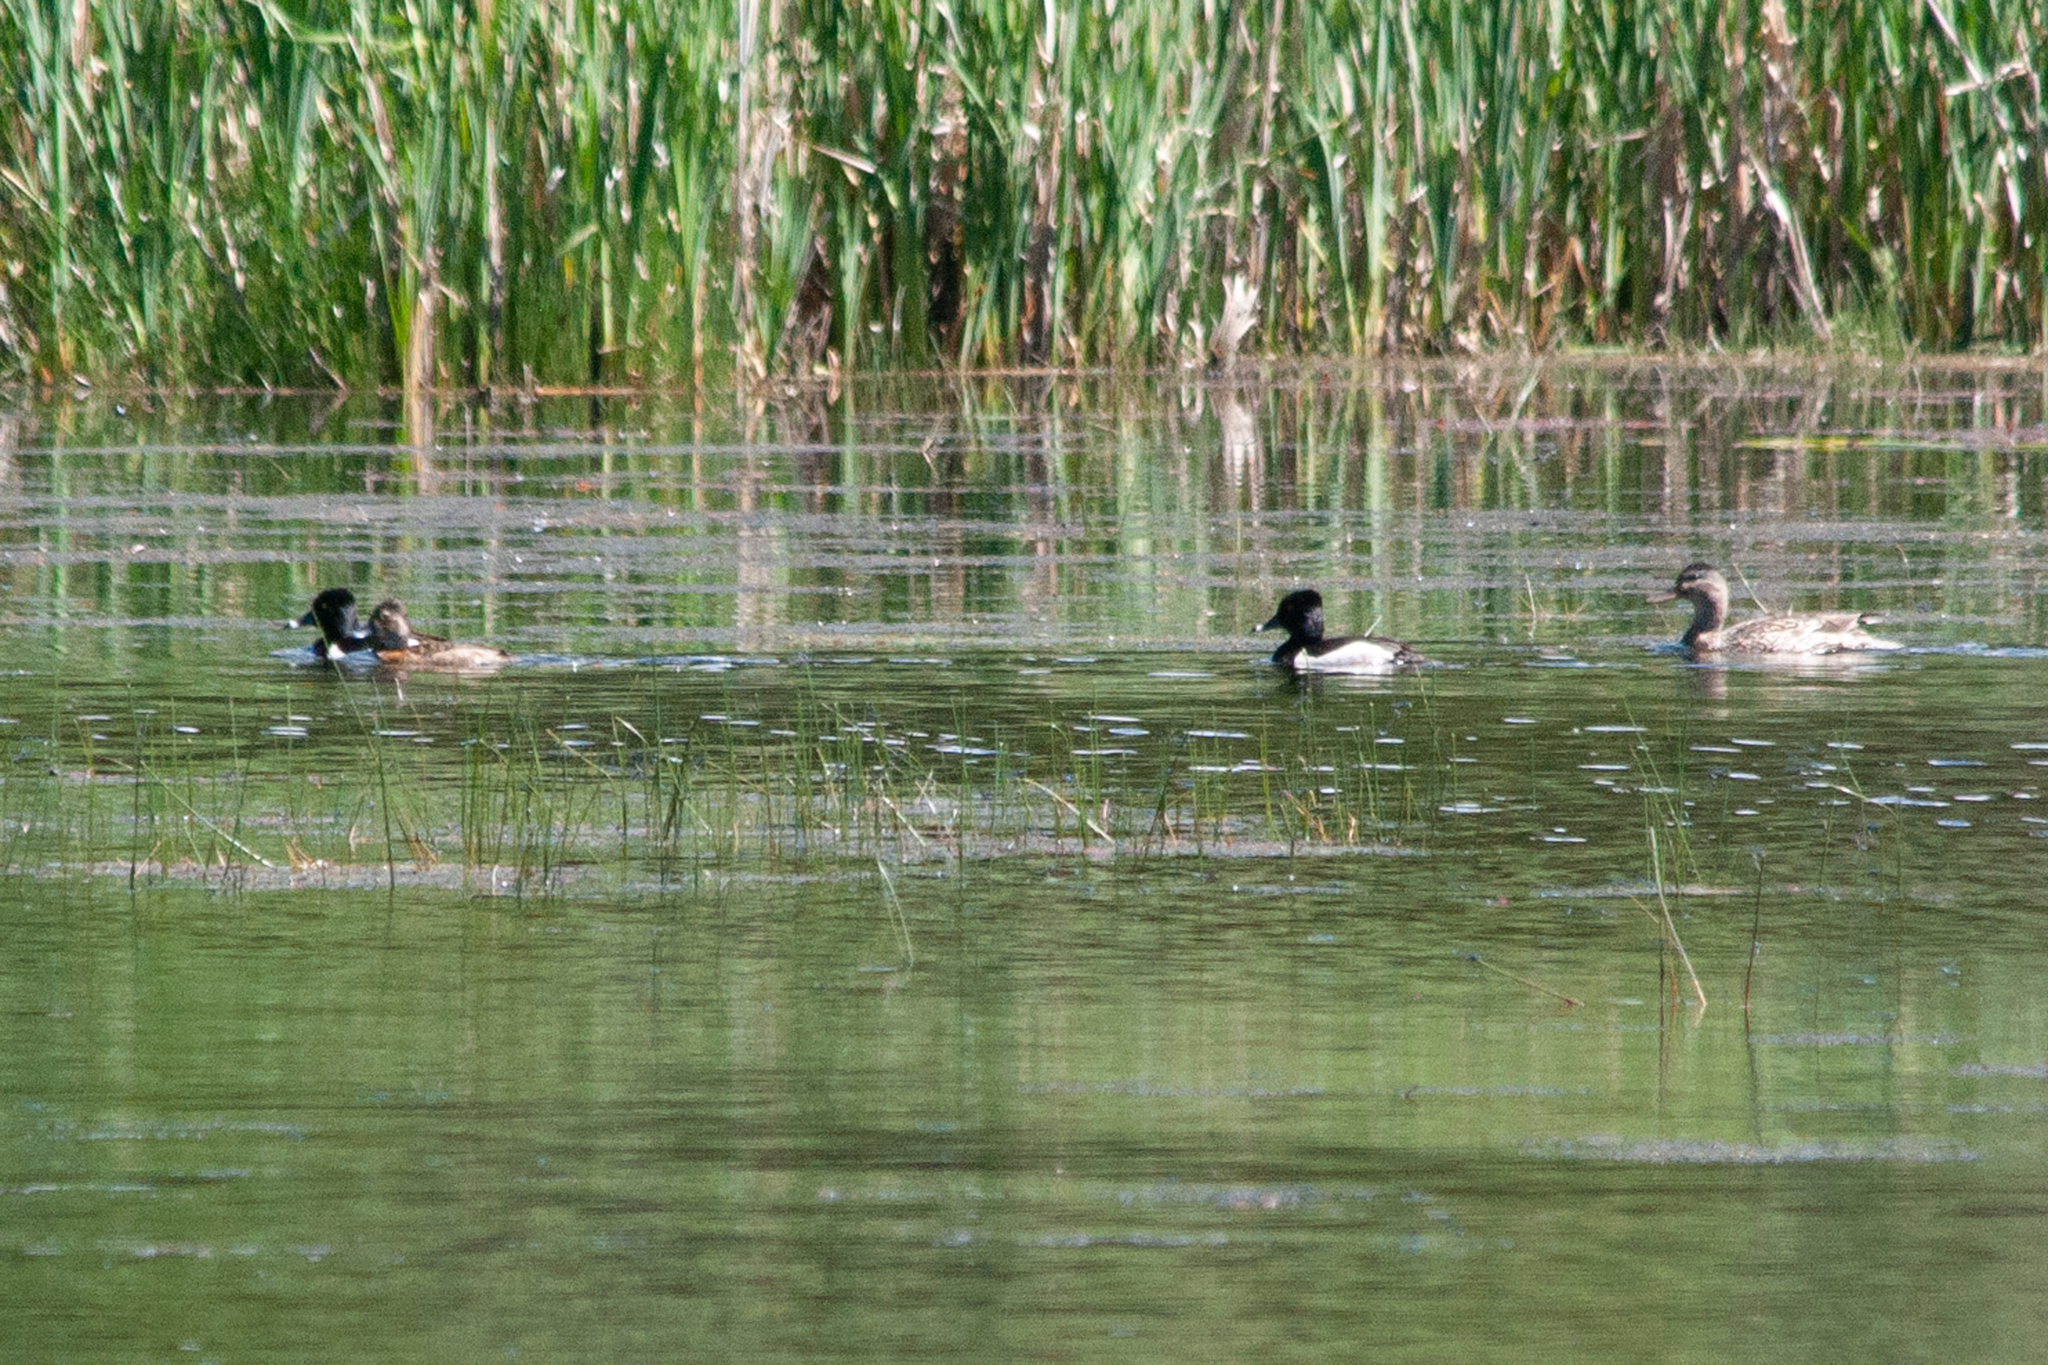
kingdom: Animalia
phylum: Chordata
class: Aves
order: Anseriformes
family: Anatidae
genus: Aythya
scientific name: Aythya collaris
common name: Ring-necked duck
